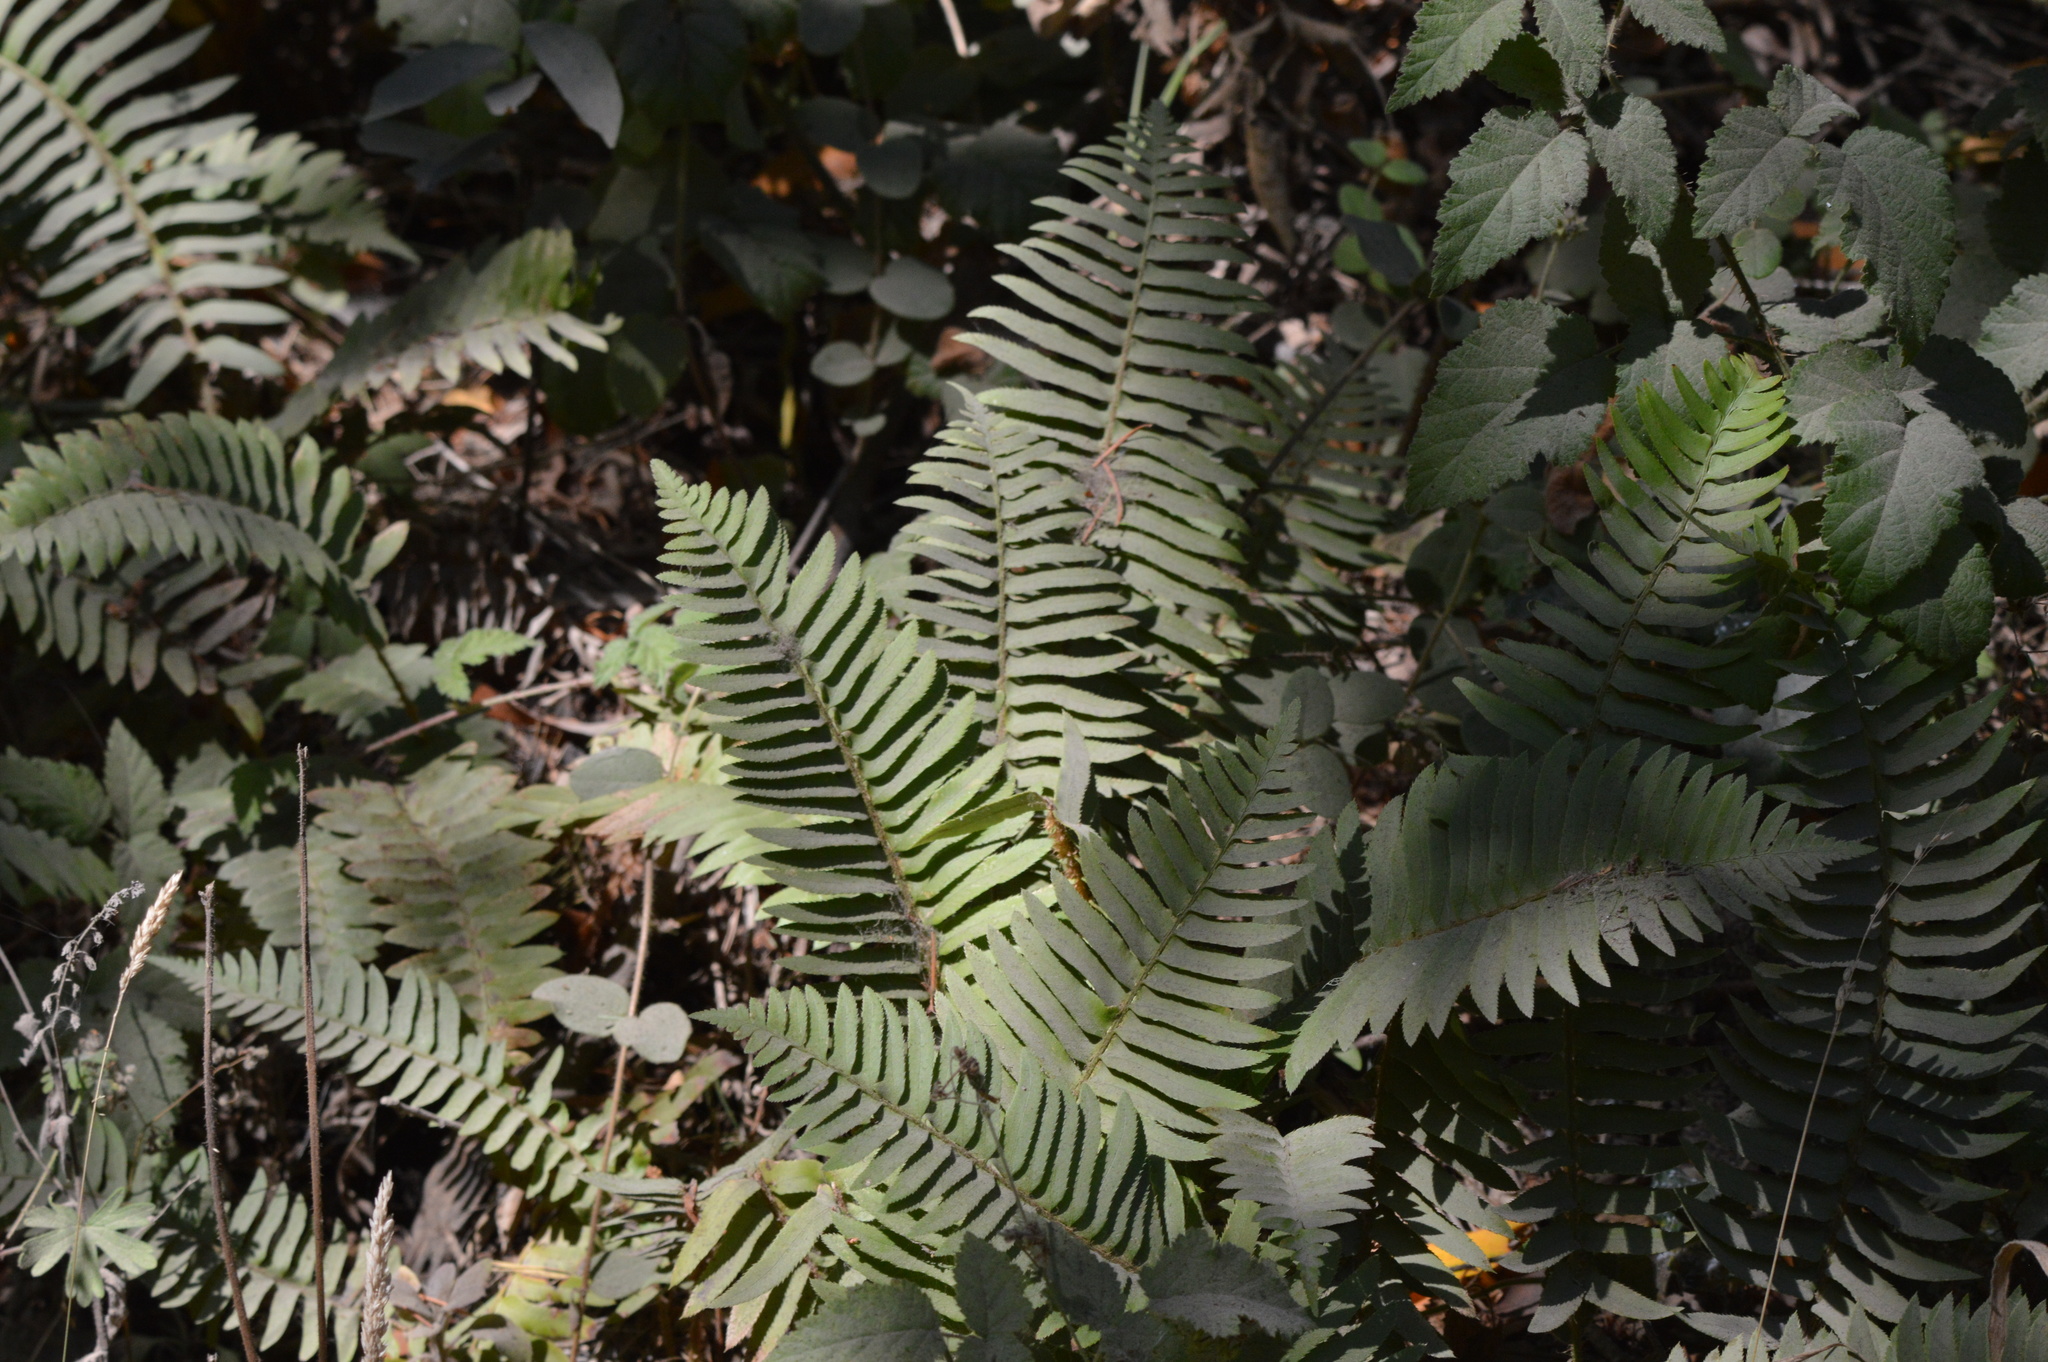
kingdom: Plantae
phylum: Tracheophyta
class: Polypodiopsida
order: Polypodiales
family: Dryopteridaceae
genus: Polystichum
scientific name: Polystichum munitum
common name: Western sword-fern
